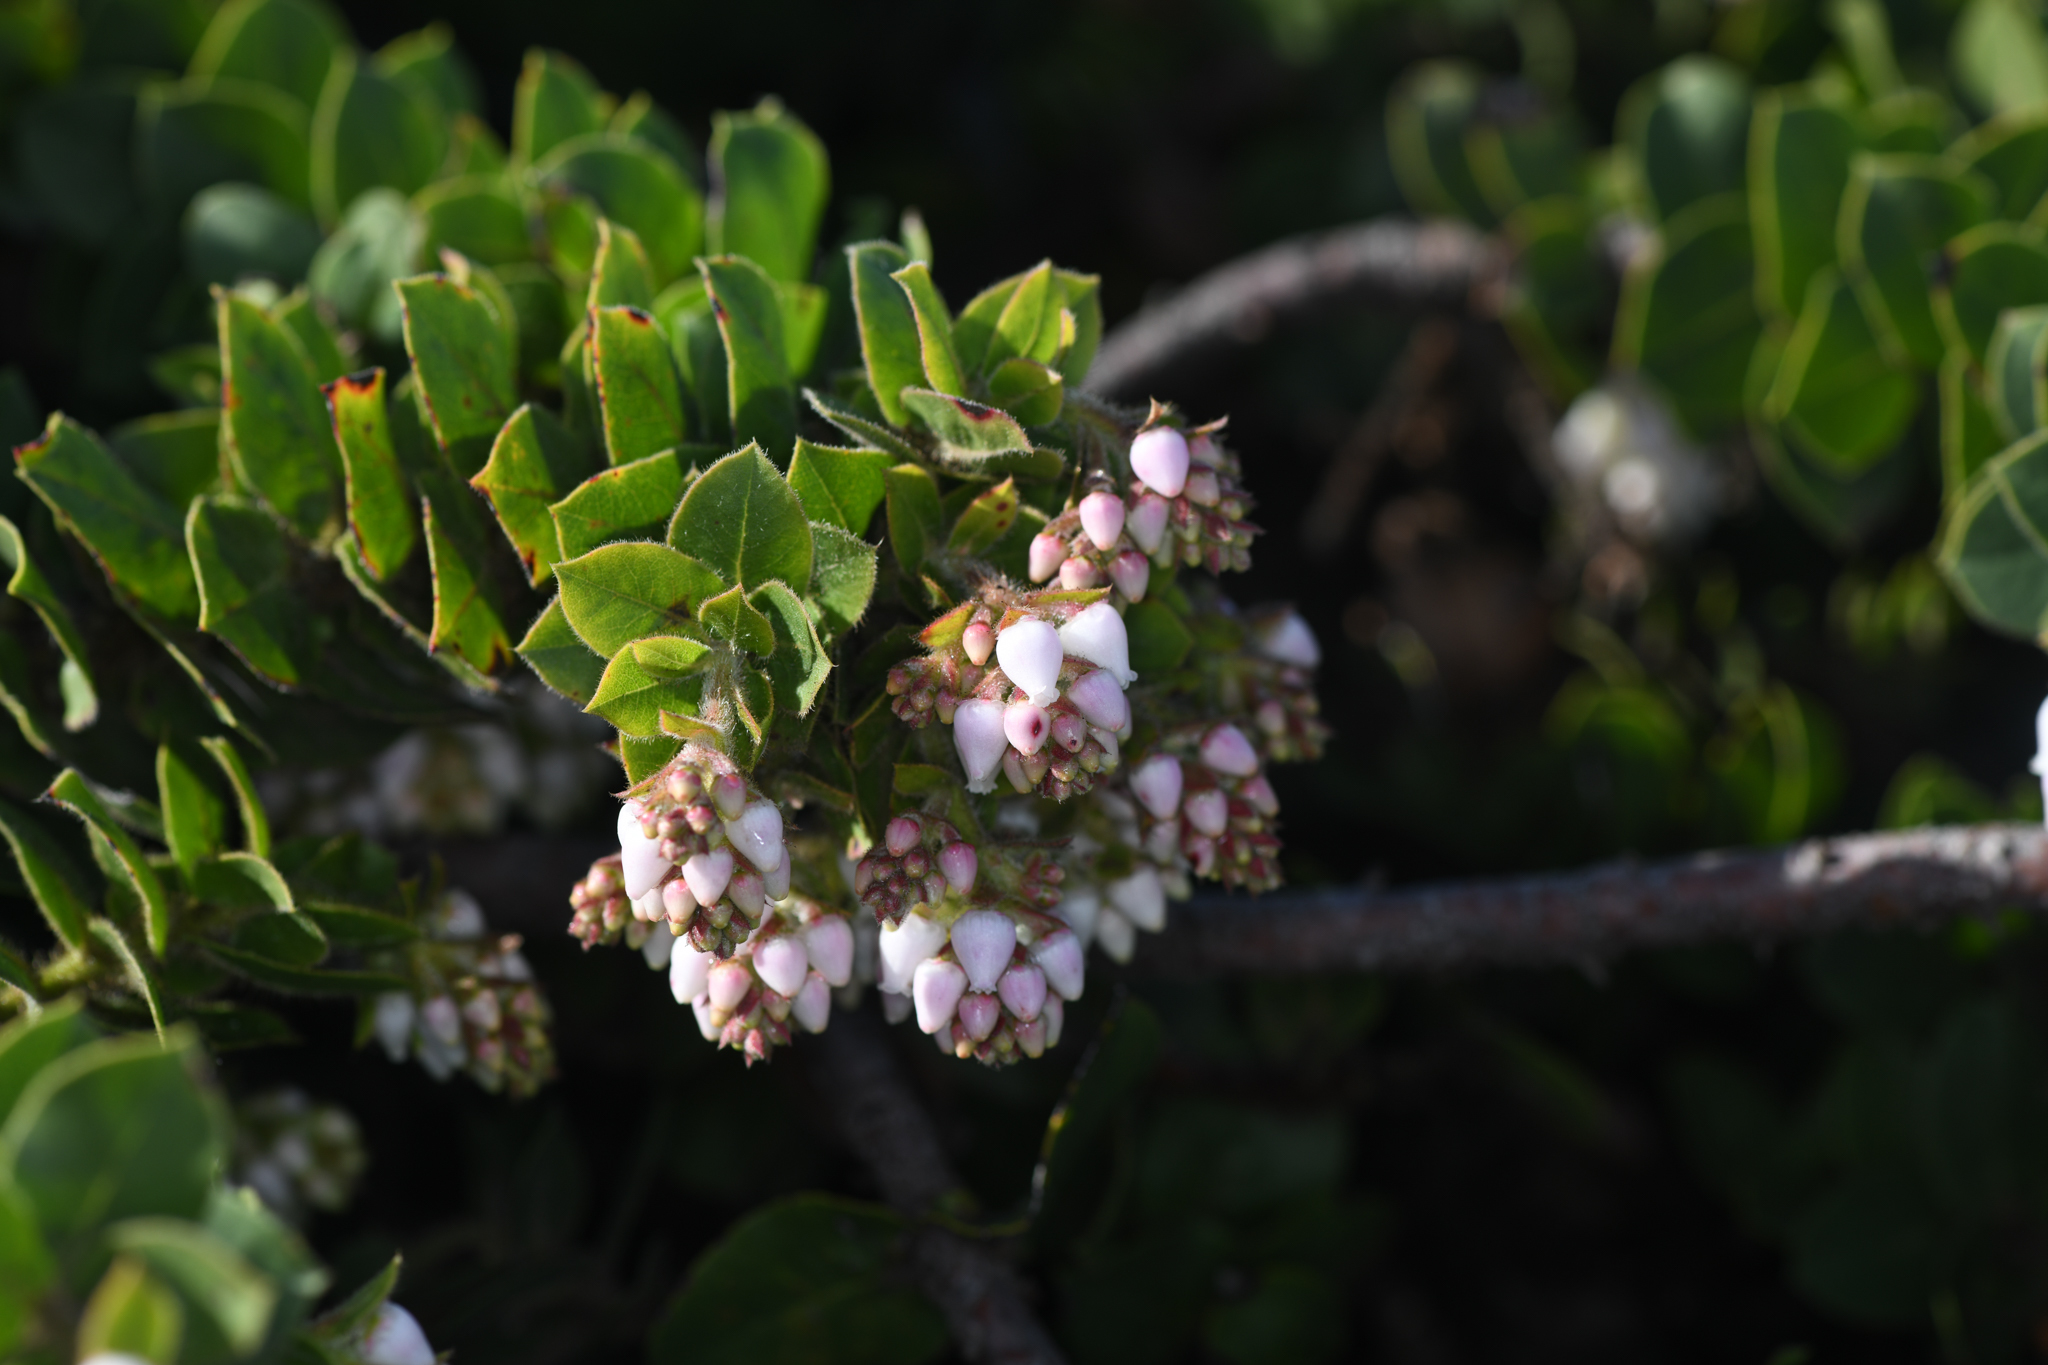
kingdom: Plantae
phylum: Tracheophyta
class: Magnoliopsida
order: Ericales
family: Ericaceae
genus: Arctostaphylos
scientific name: Arctostaphylos imbricata
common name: San bruno mountain manzanita
